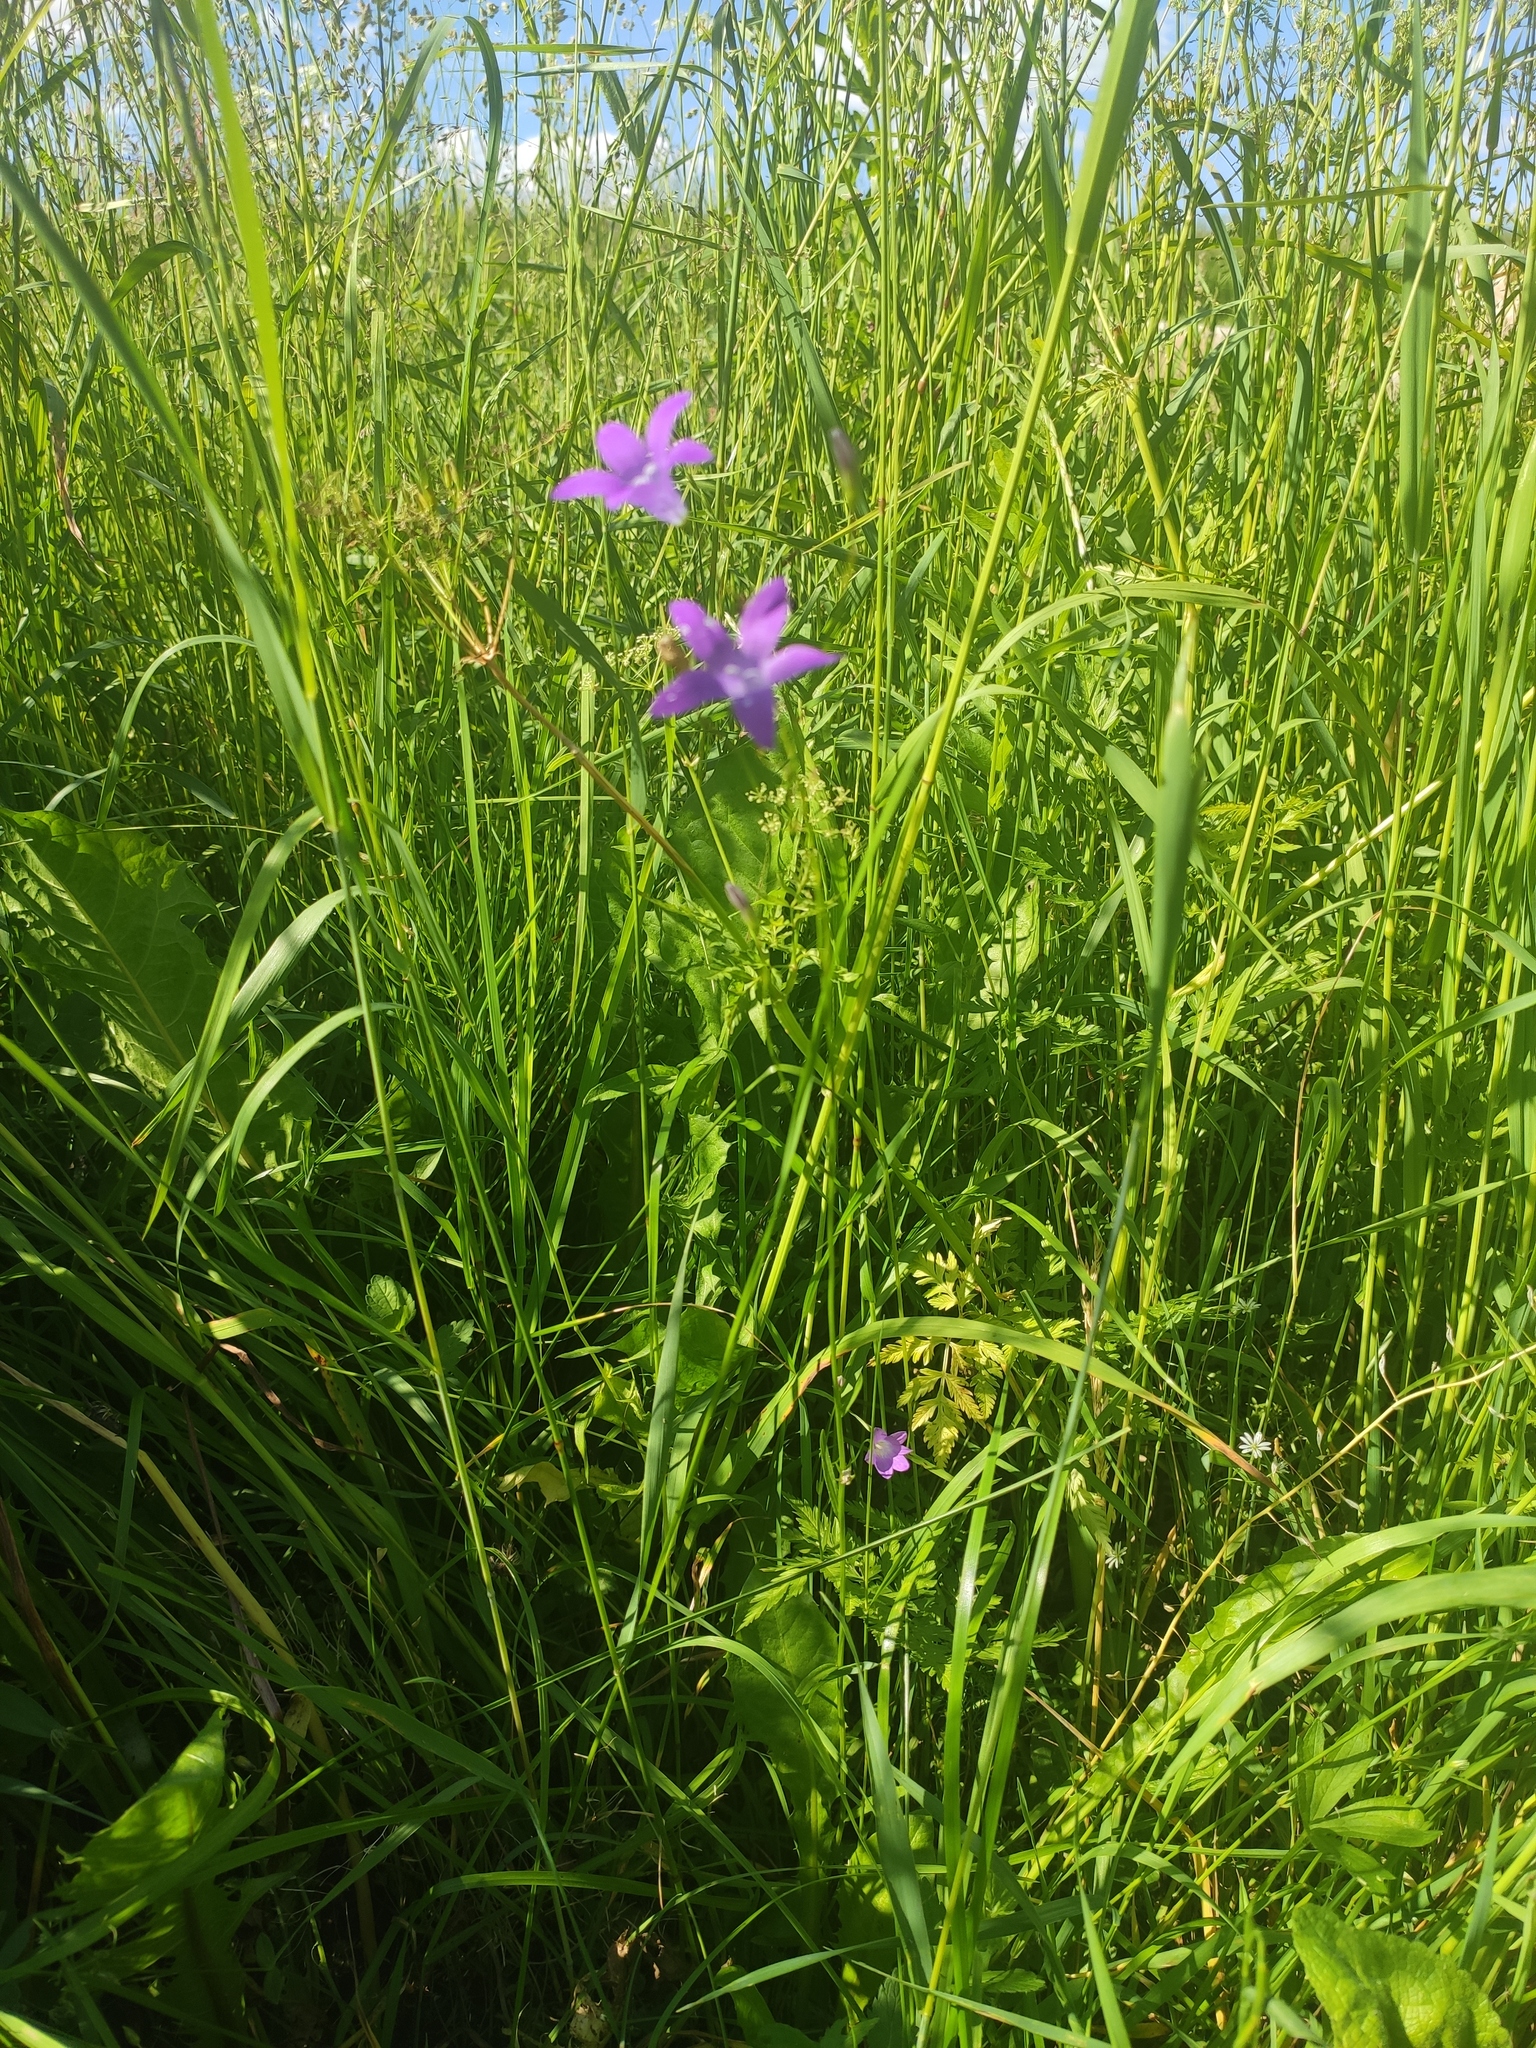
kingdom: Plantae
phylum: Tracheophyta
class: Magnoliopsida
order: Asterales
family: Campanulaceae
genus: Campanula
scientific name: Campanula patula
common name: Spreading bellflower
